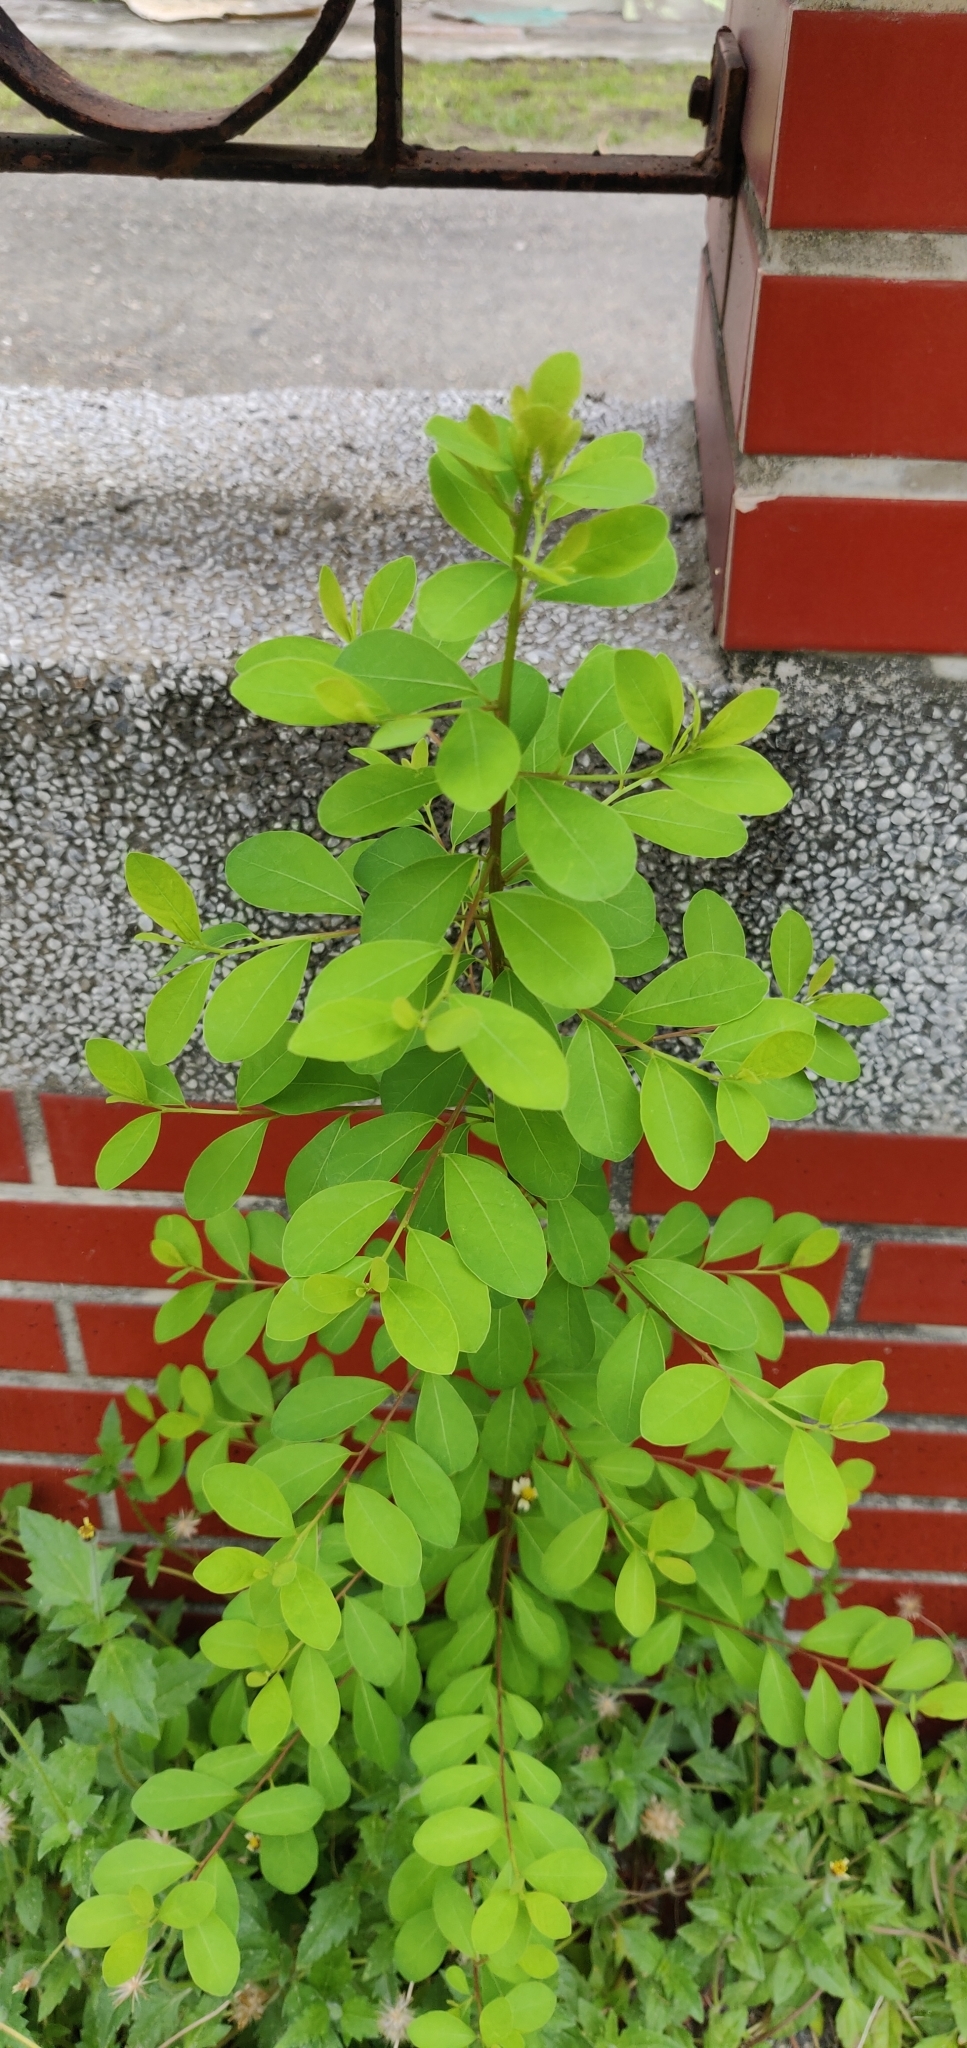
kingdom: Plantae
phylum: Tracheophyta
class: Magnoliopsida
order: Malpighiales
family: Phyllanthaceae
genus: Flueggea
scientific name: Flueggea virosa
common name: Common bushweed
